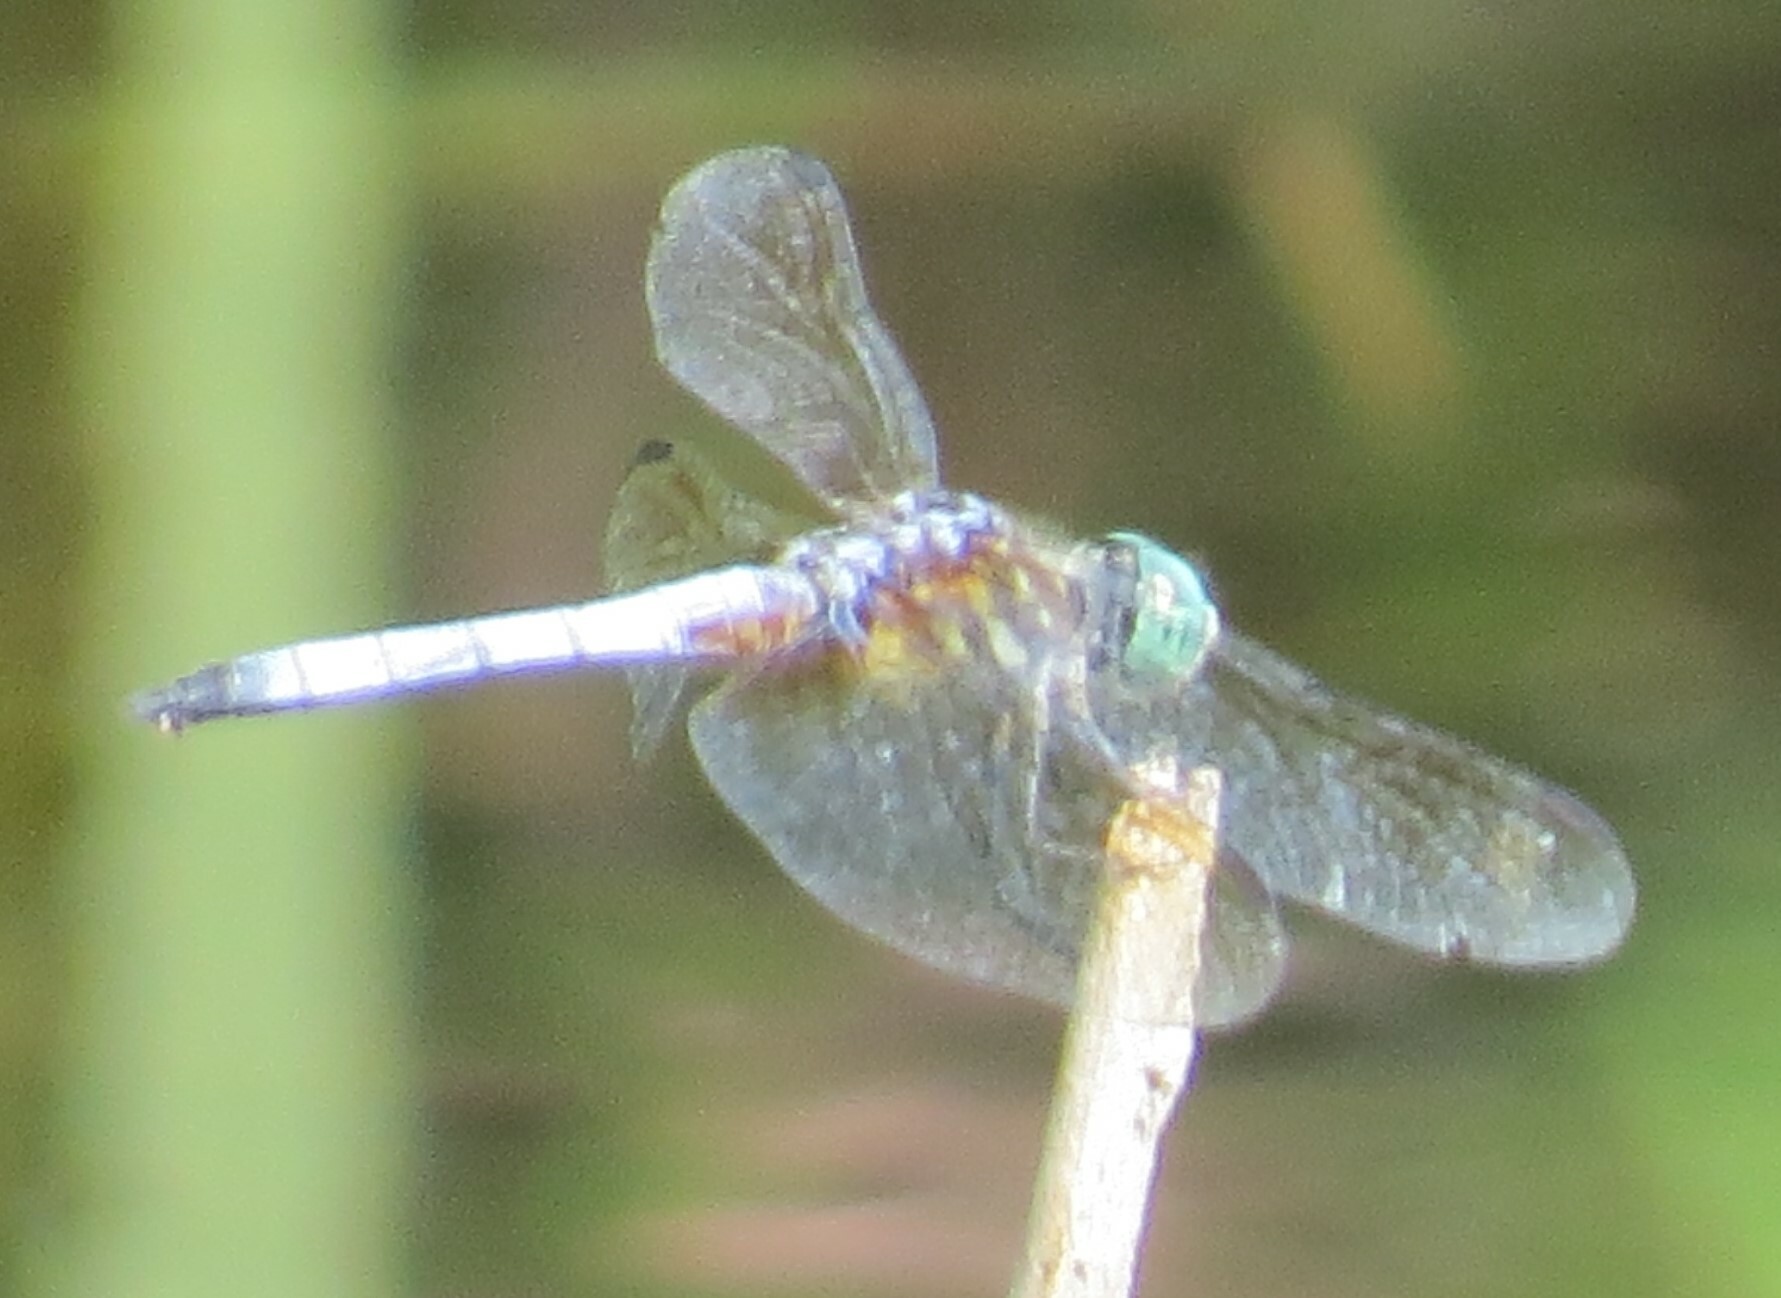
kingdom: Animalia
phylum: Arthropoda
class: Insecta
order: Odonata
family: Libellulidae
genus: Pachydiplax
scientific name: Pachydiplax longipennis
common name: Blue dasher
